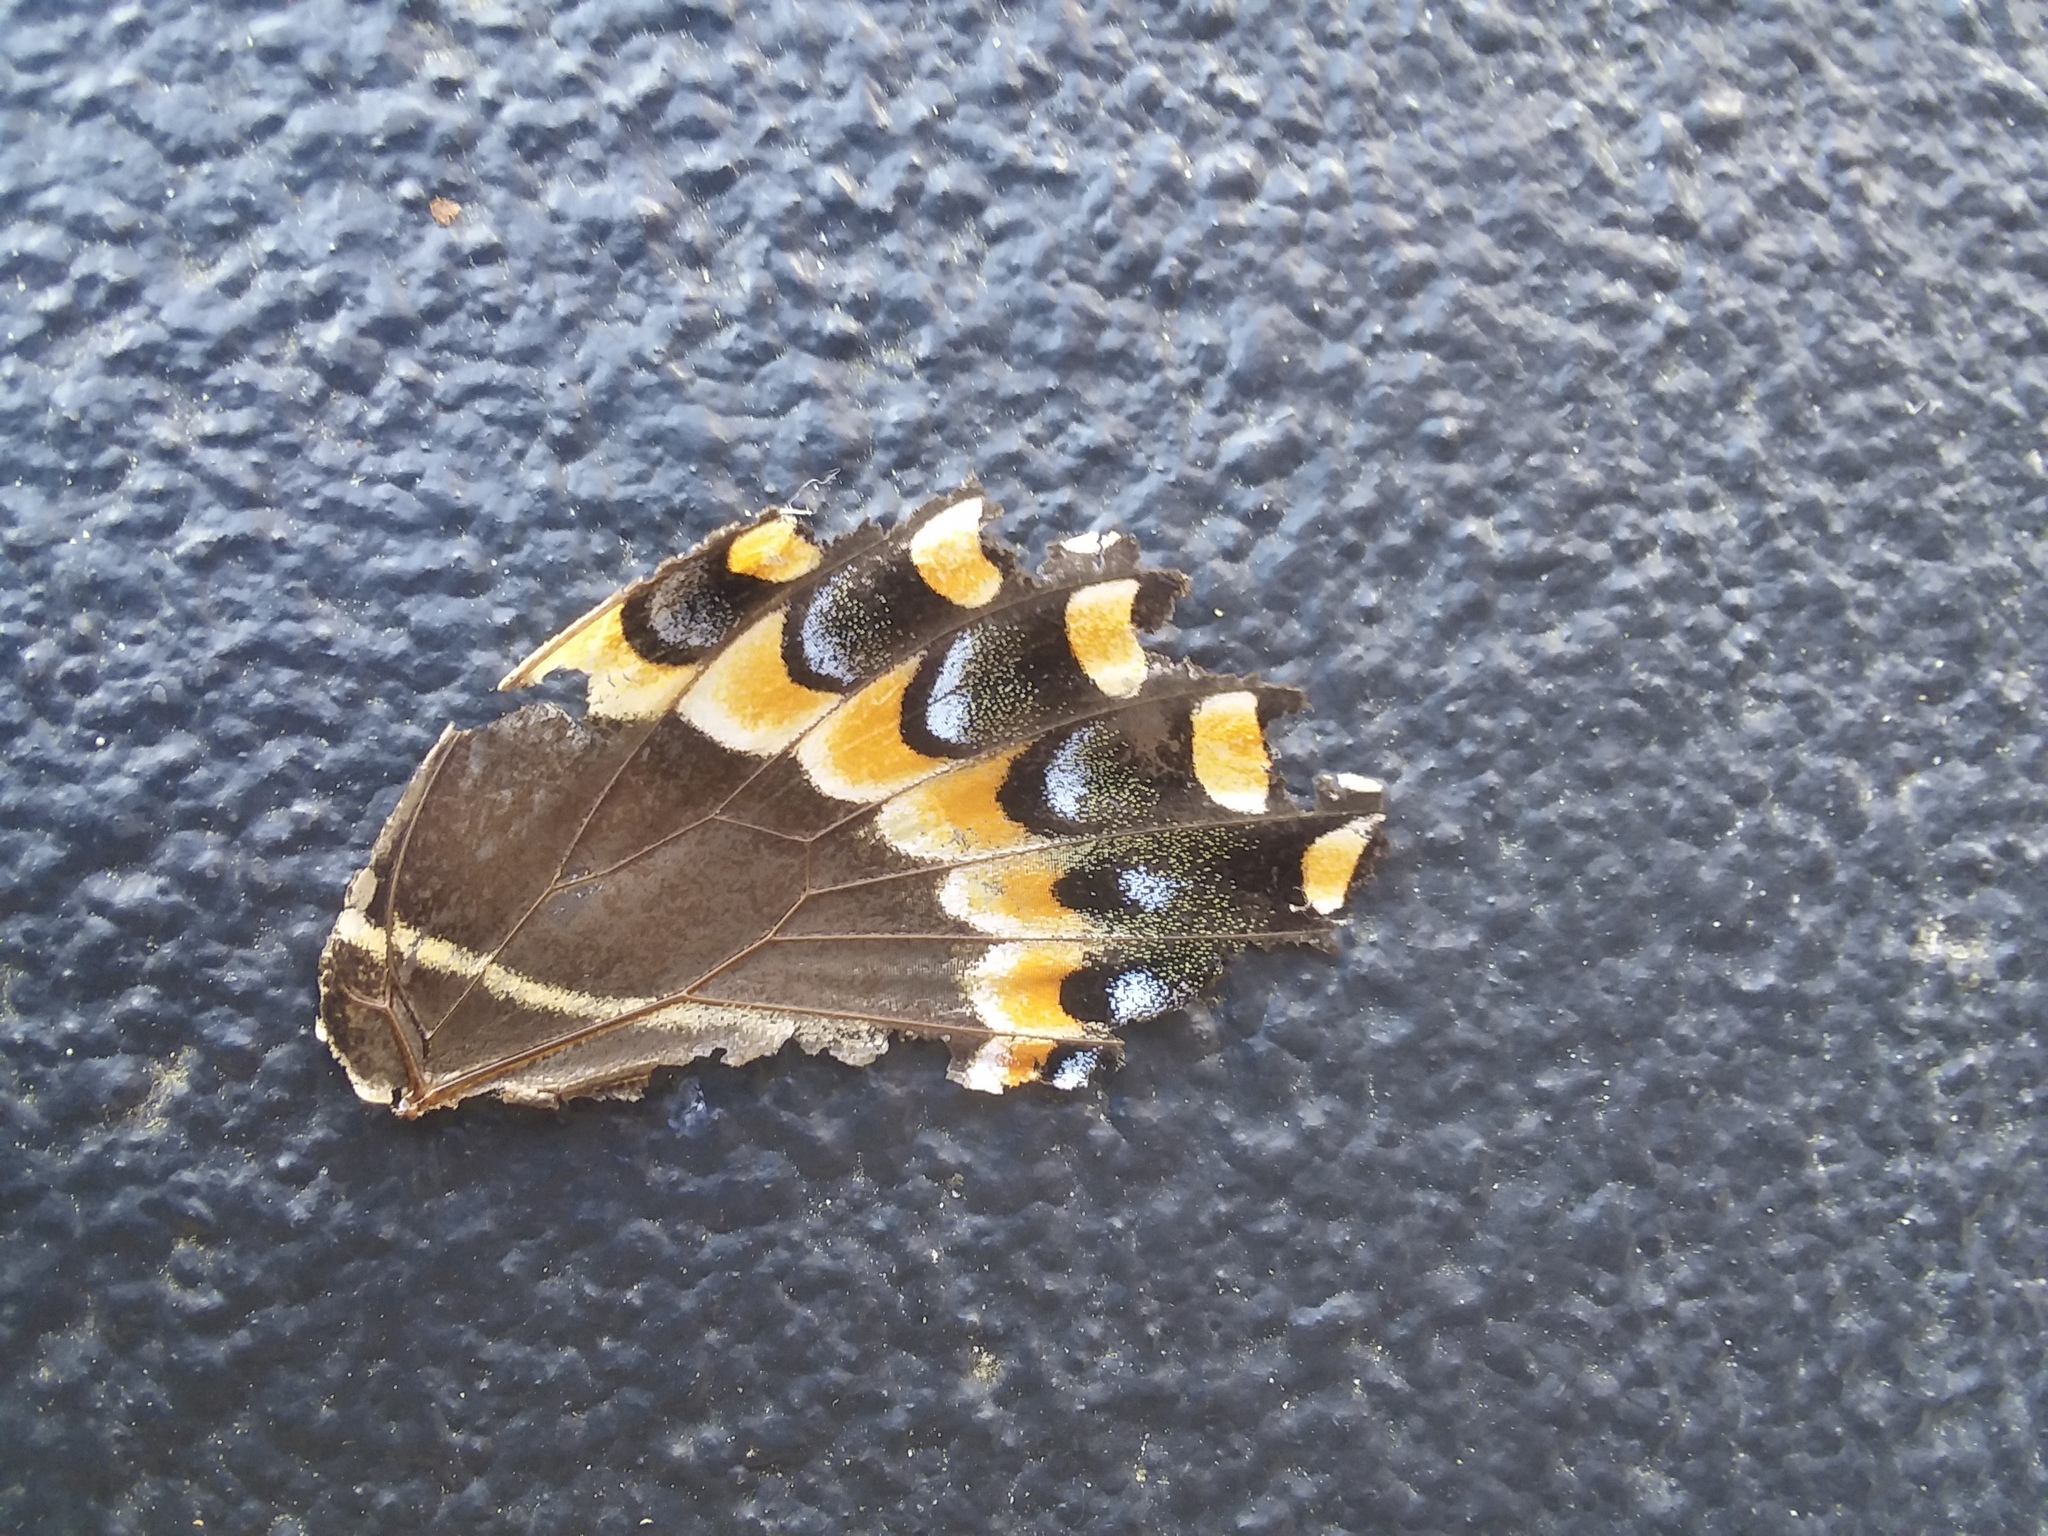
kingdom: Animalia
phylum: Arthropoda
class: Insecta
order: Lepidoptera
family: Papilionidae
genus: Papilio
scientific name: Papilio palamedes
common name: Palamedes swallowtail
